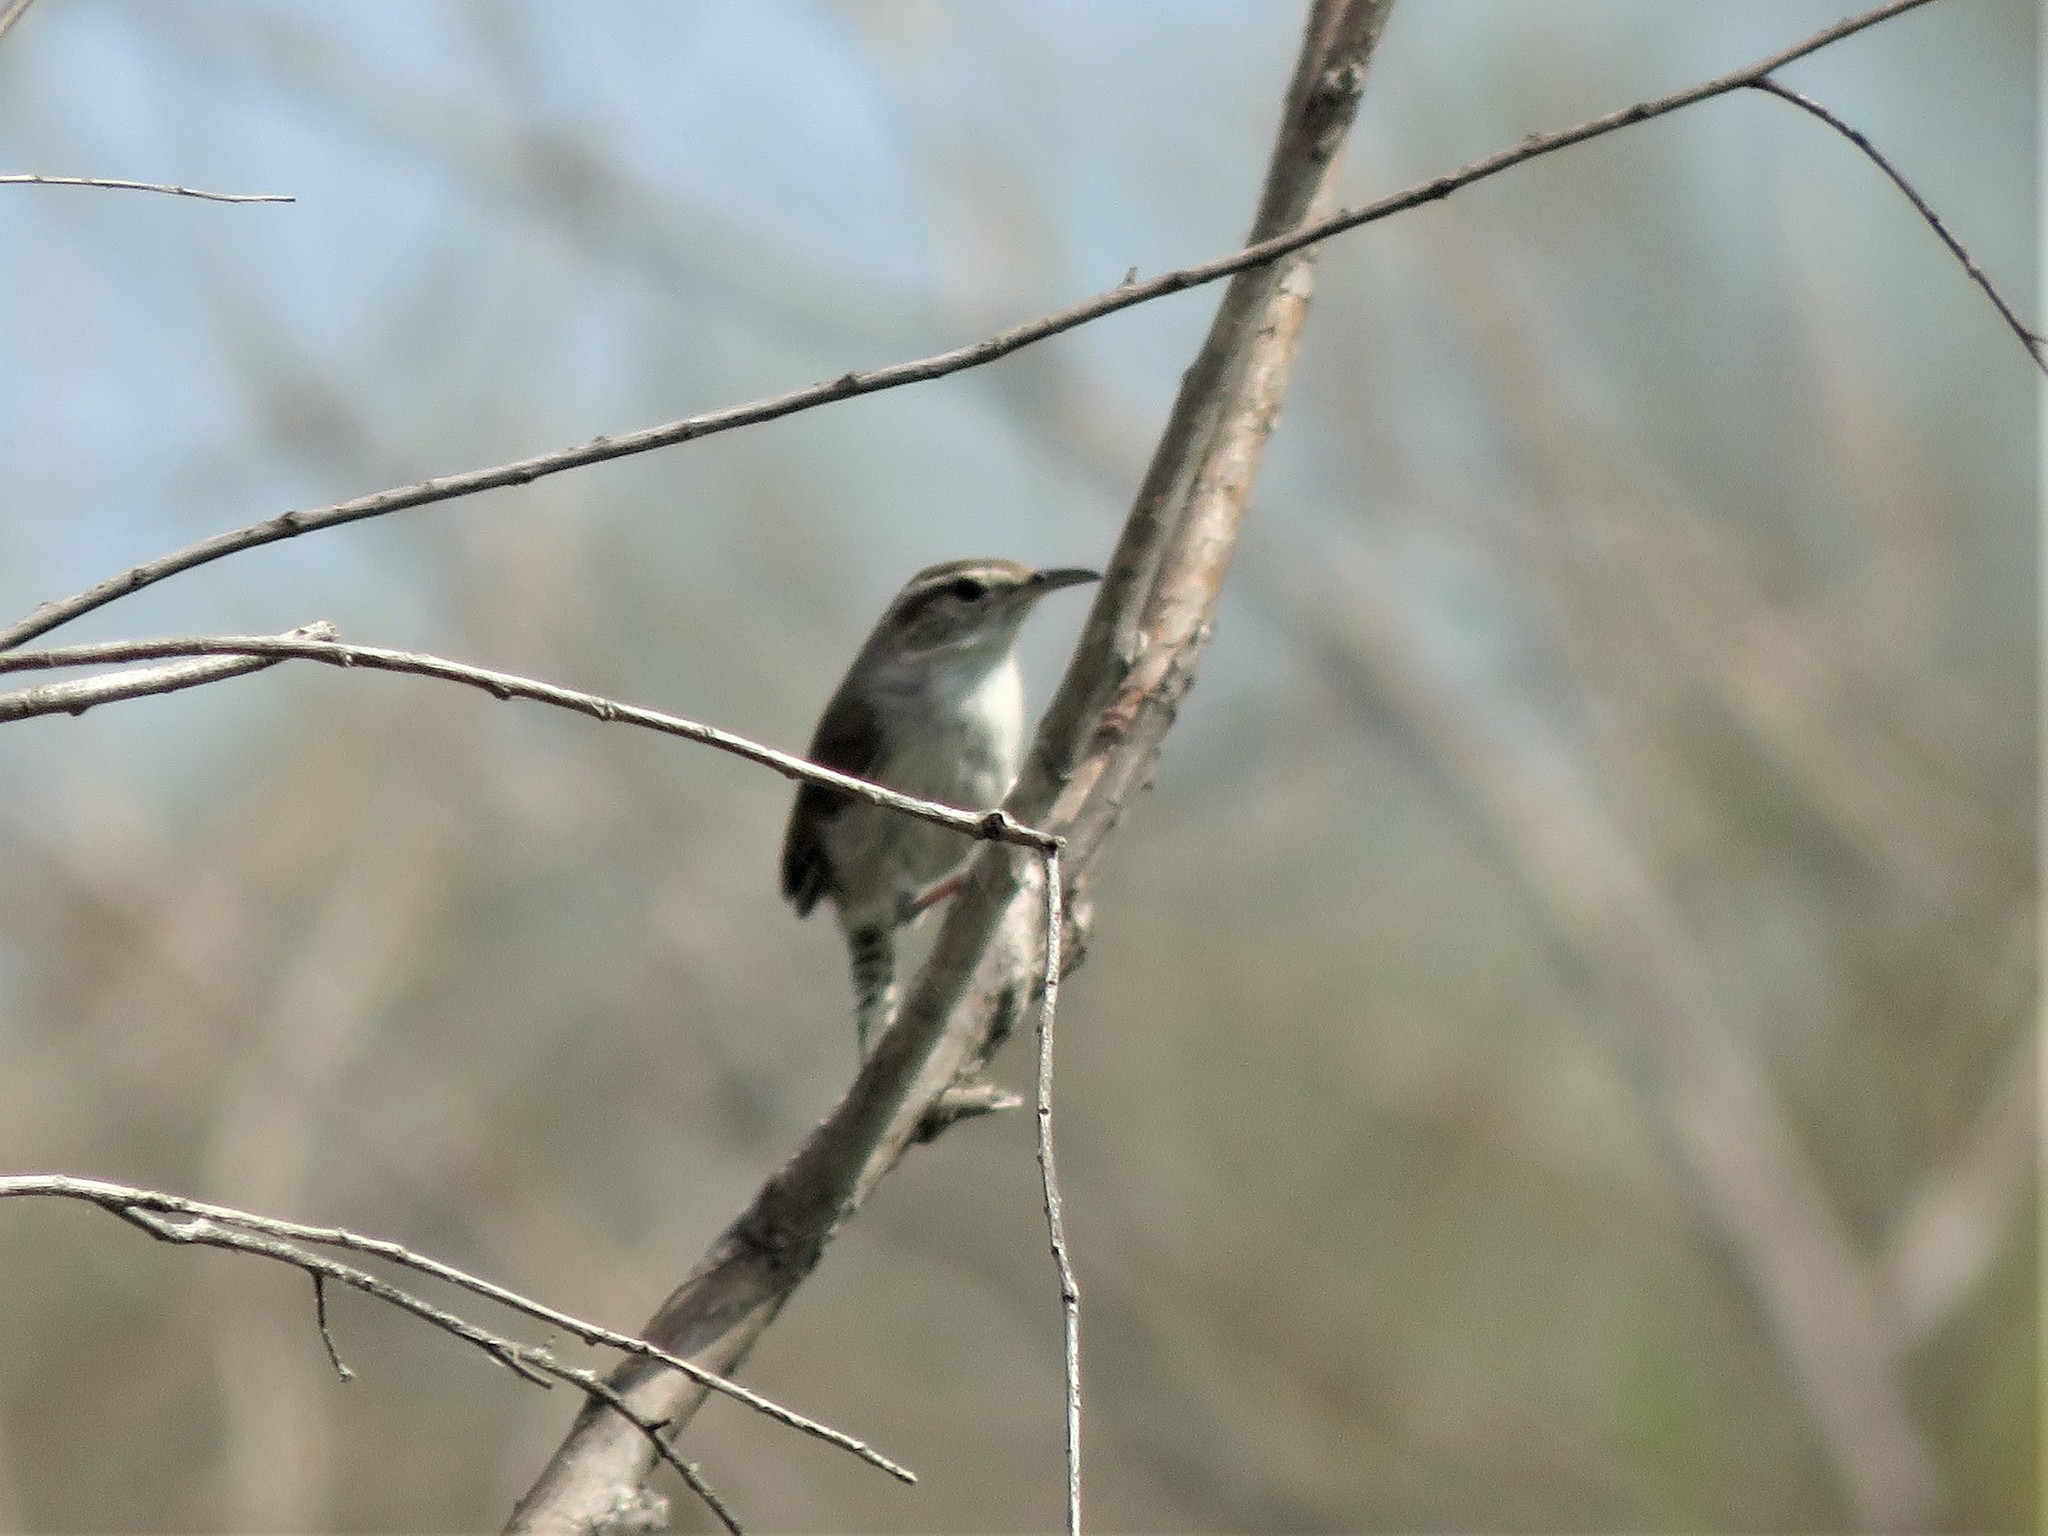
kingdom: Animalia
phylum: Chordata
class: Aves
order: Passeriformes
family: Troglodytidae
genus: Thryomanes
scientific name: Thryomanes bewickii
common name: Bewick's wren
